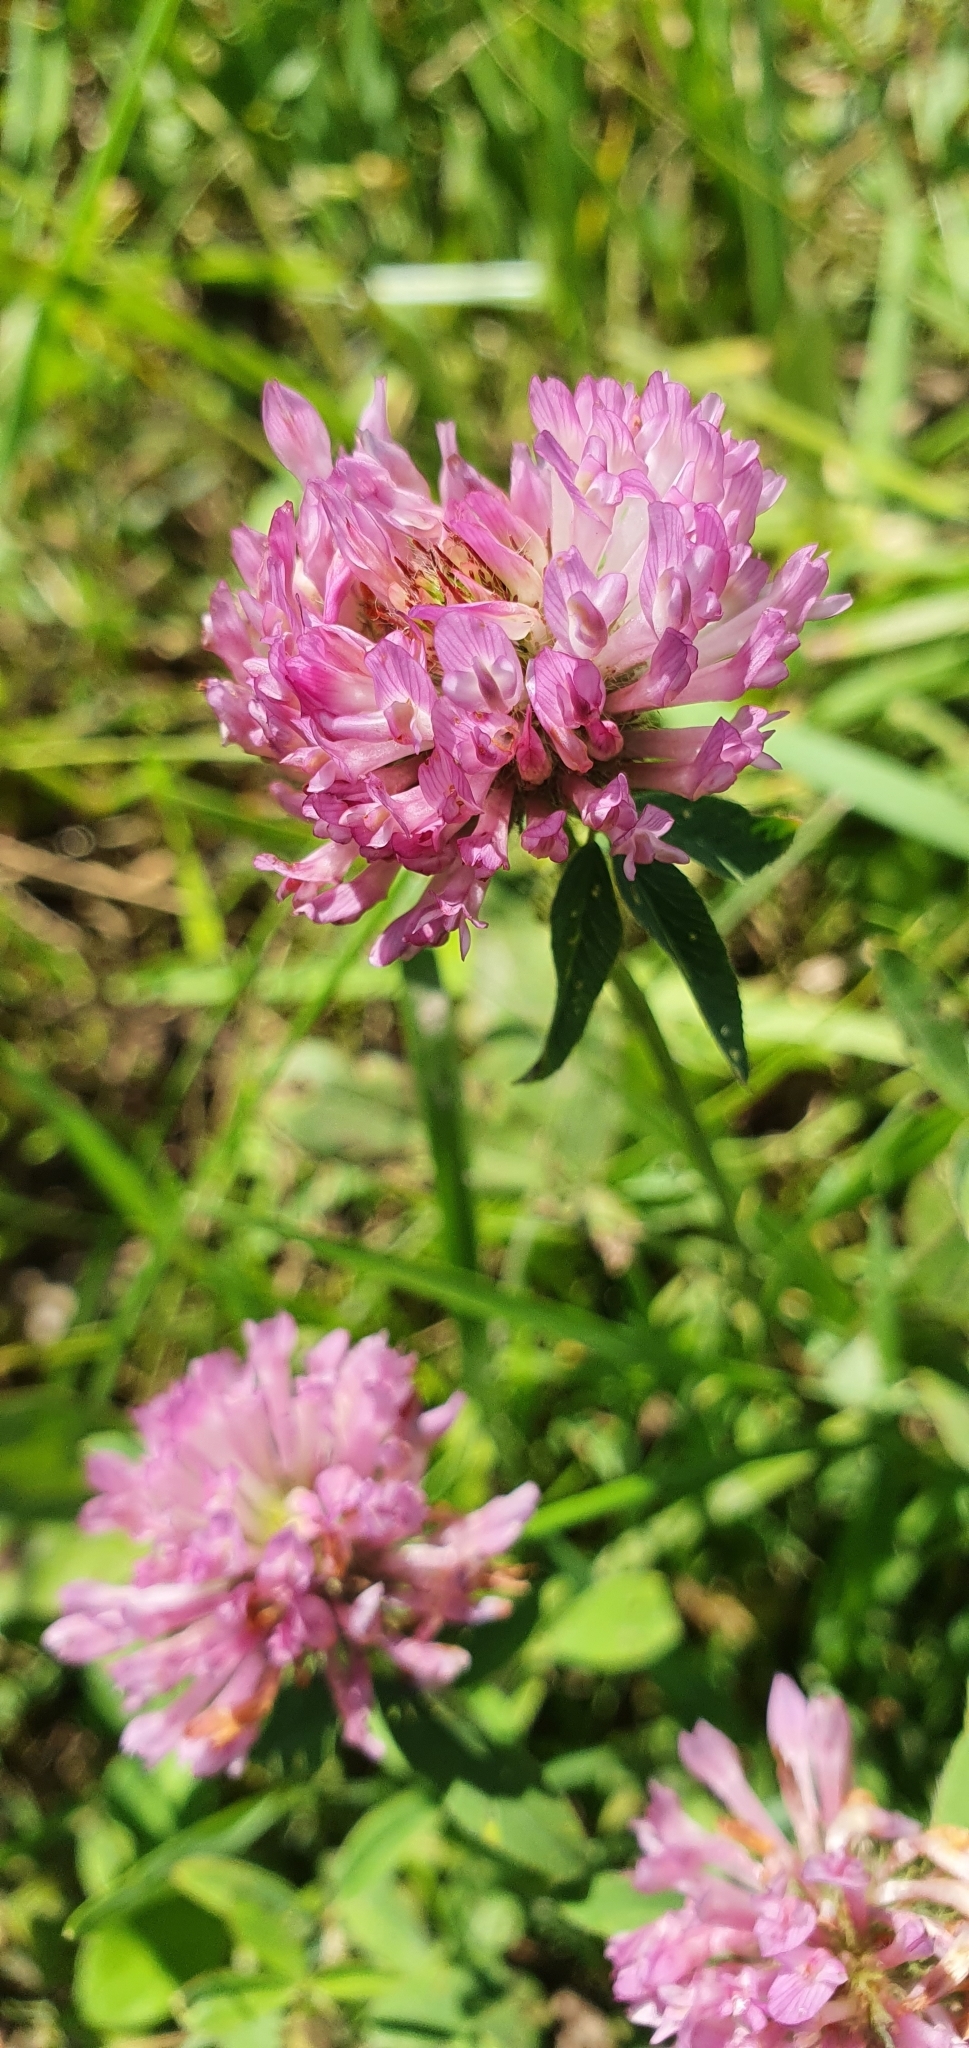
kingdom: Plantae
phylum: Tracheophyta
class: Magnoliopsida
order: Fabales
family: Fabaceae
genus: Trifolium
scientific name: Trifolium pratense
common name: Red clover
